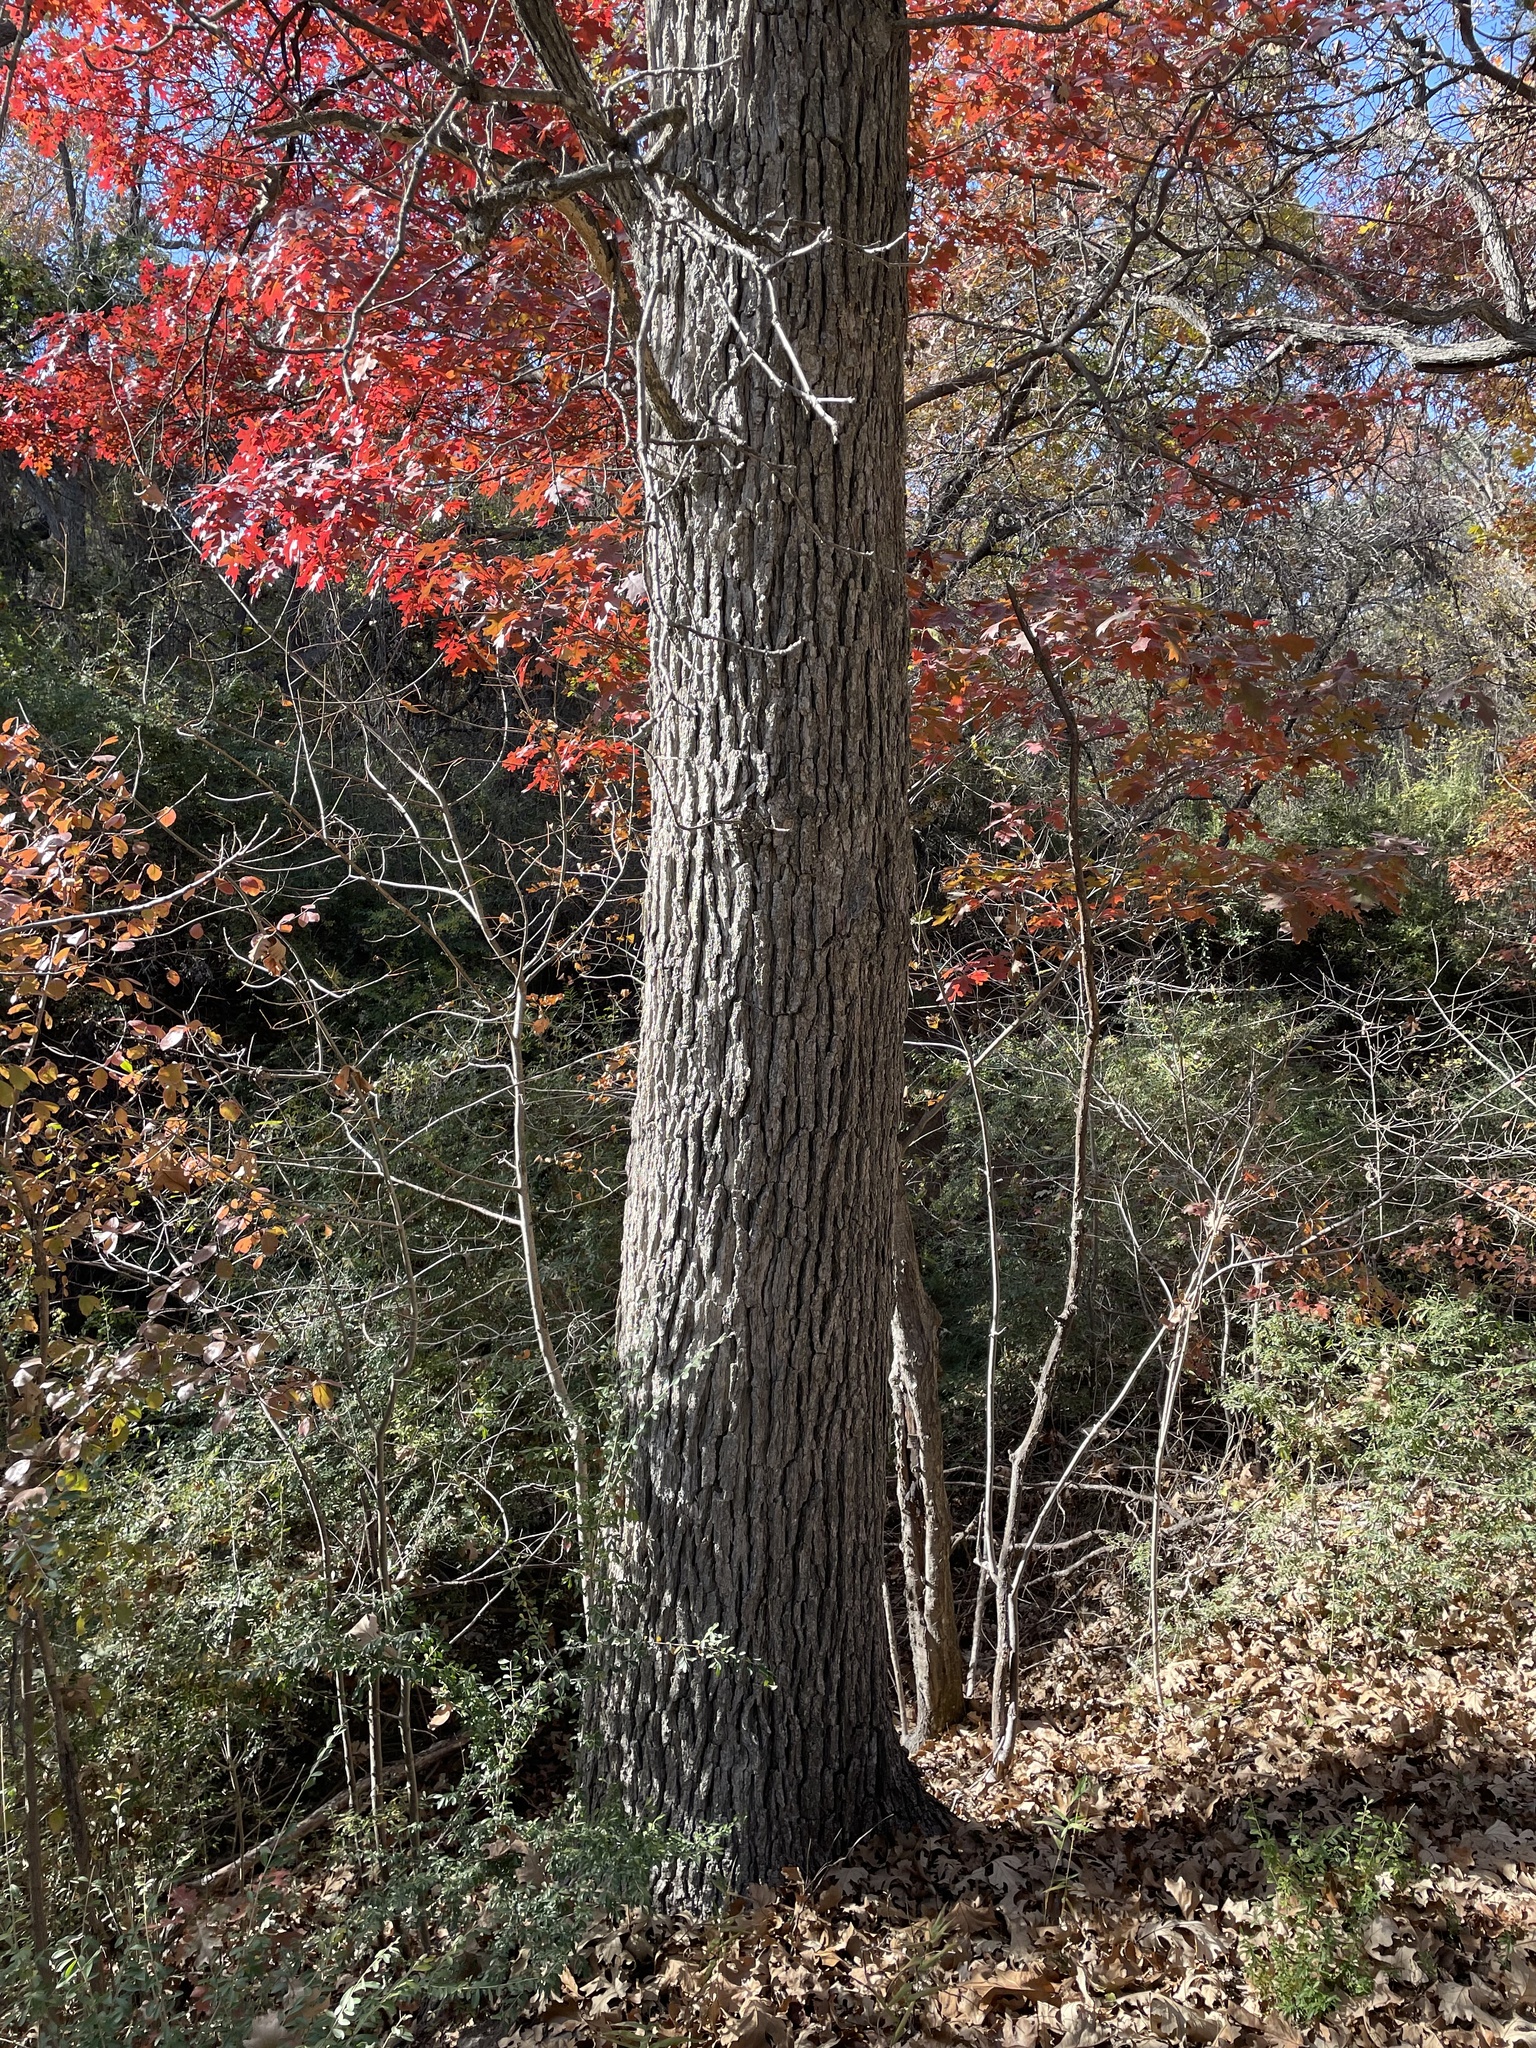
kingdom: Plantae
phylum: Tracheophyta
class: Magnoliopsida
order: Fagales
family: Fagaceae
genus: Quercus
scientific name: Quercus macrocarpa
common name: Bur oak
